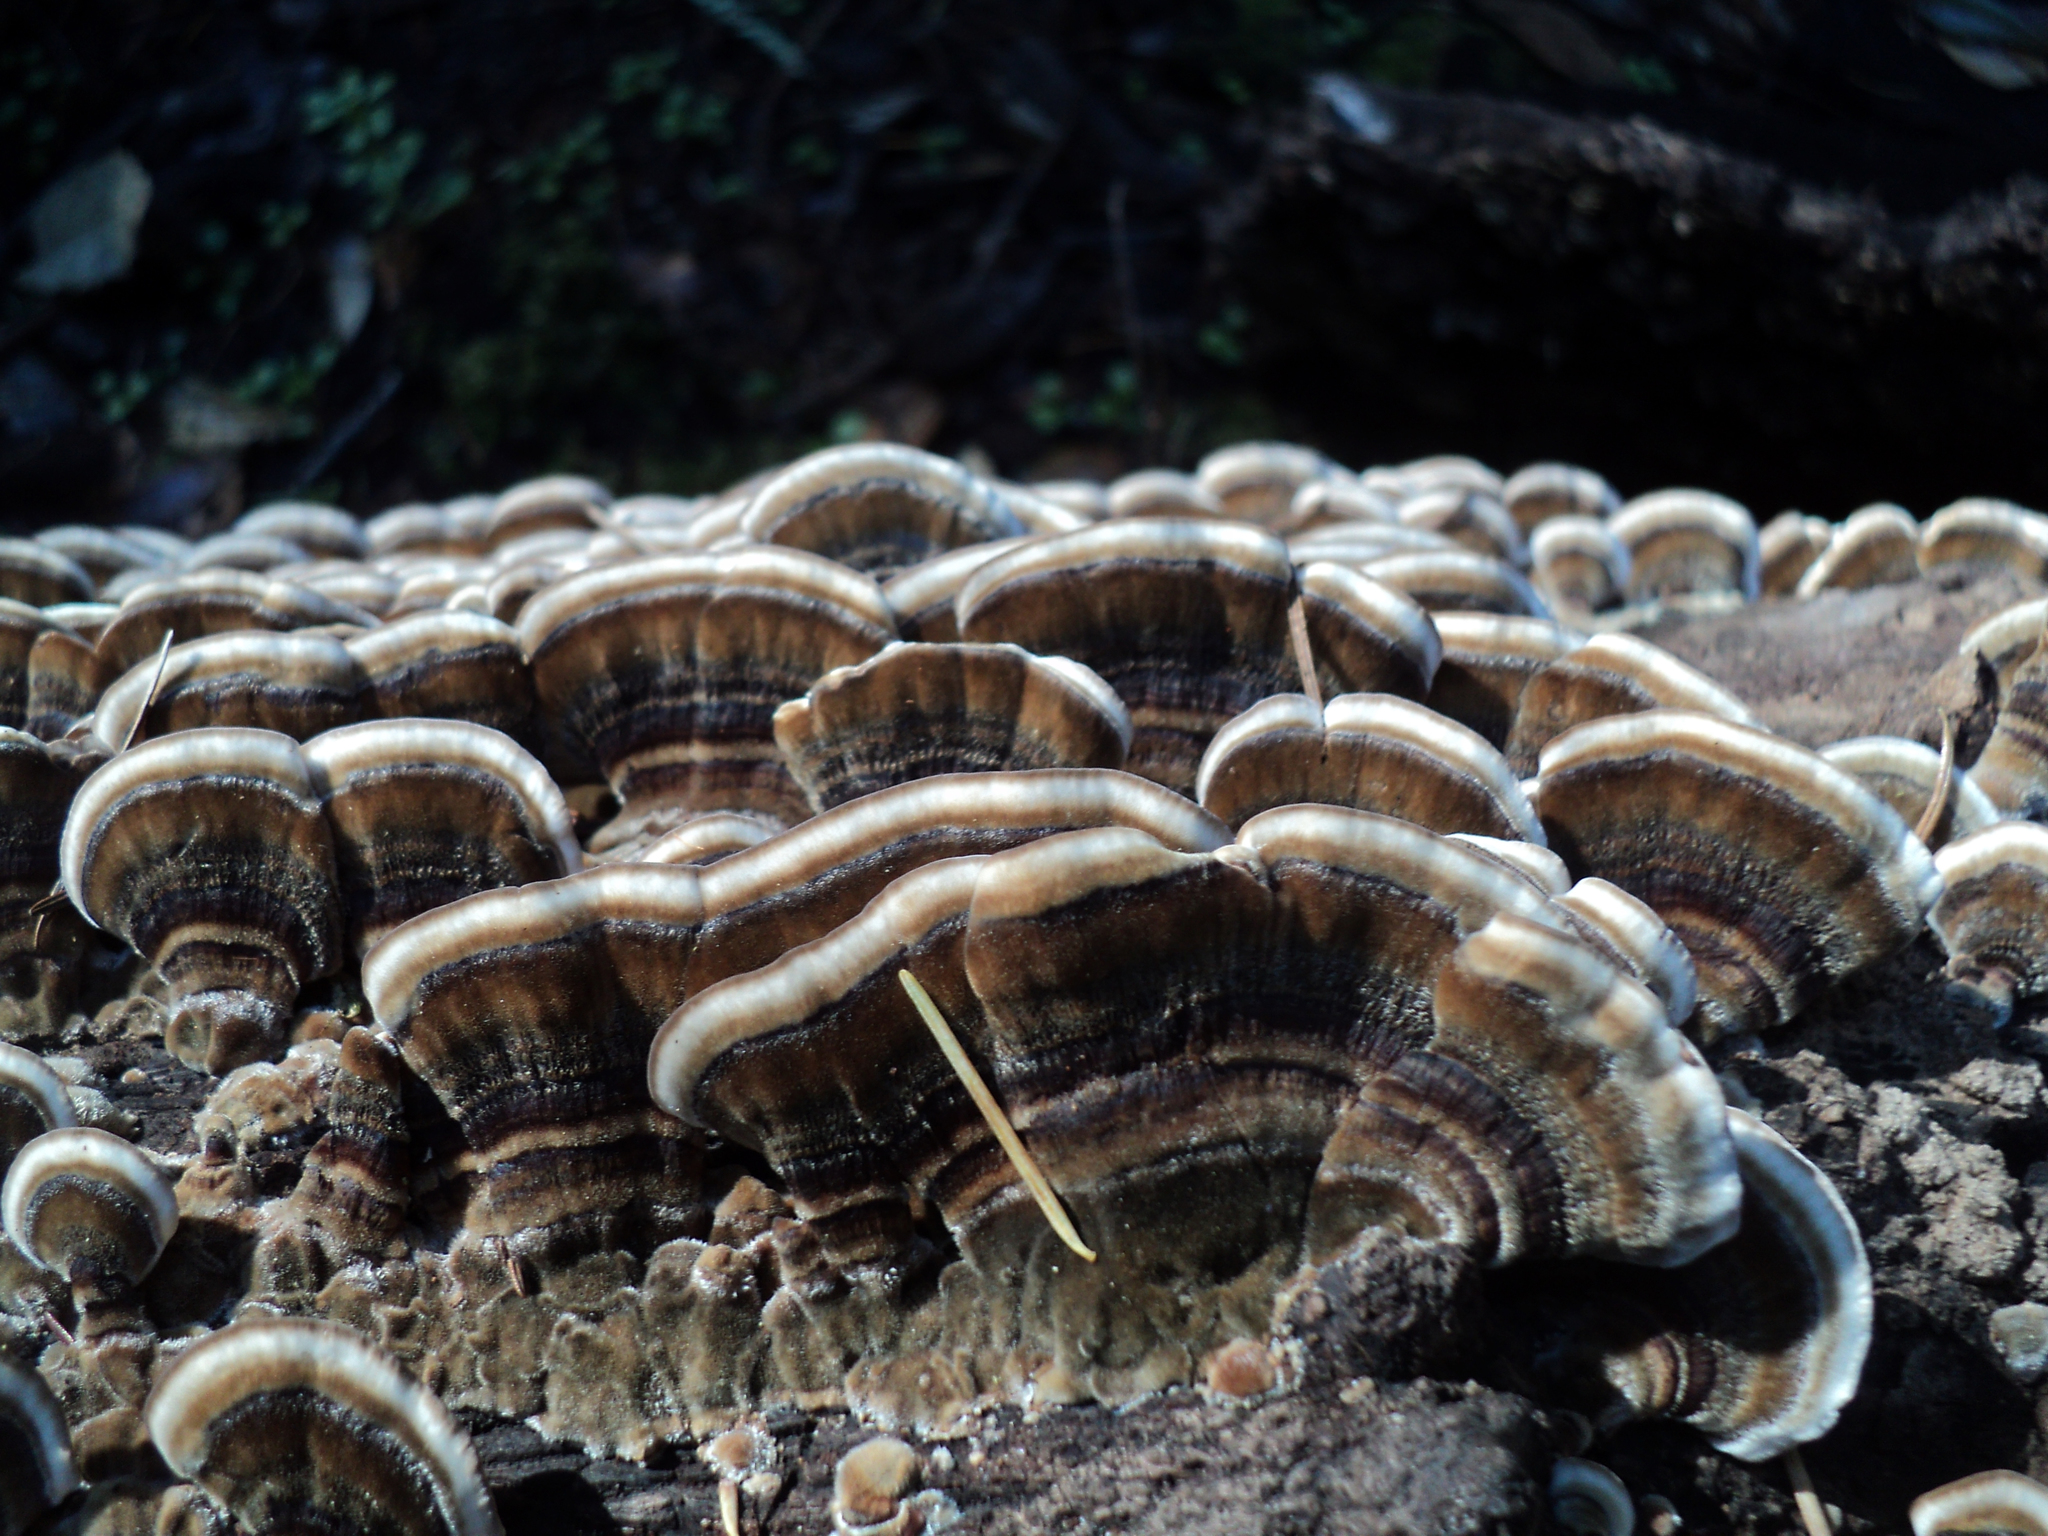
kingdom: Fungi
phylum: Basidiomycota
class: Agaricomycetes
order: Polyporales
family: Polyporaceae
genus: Trametes
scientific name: Trametes versicolor
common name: Turkeytail
